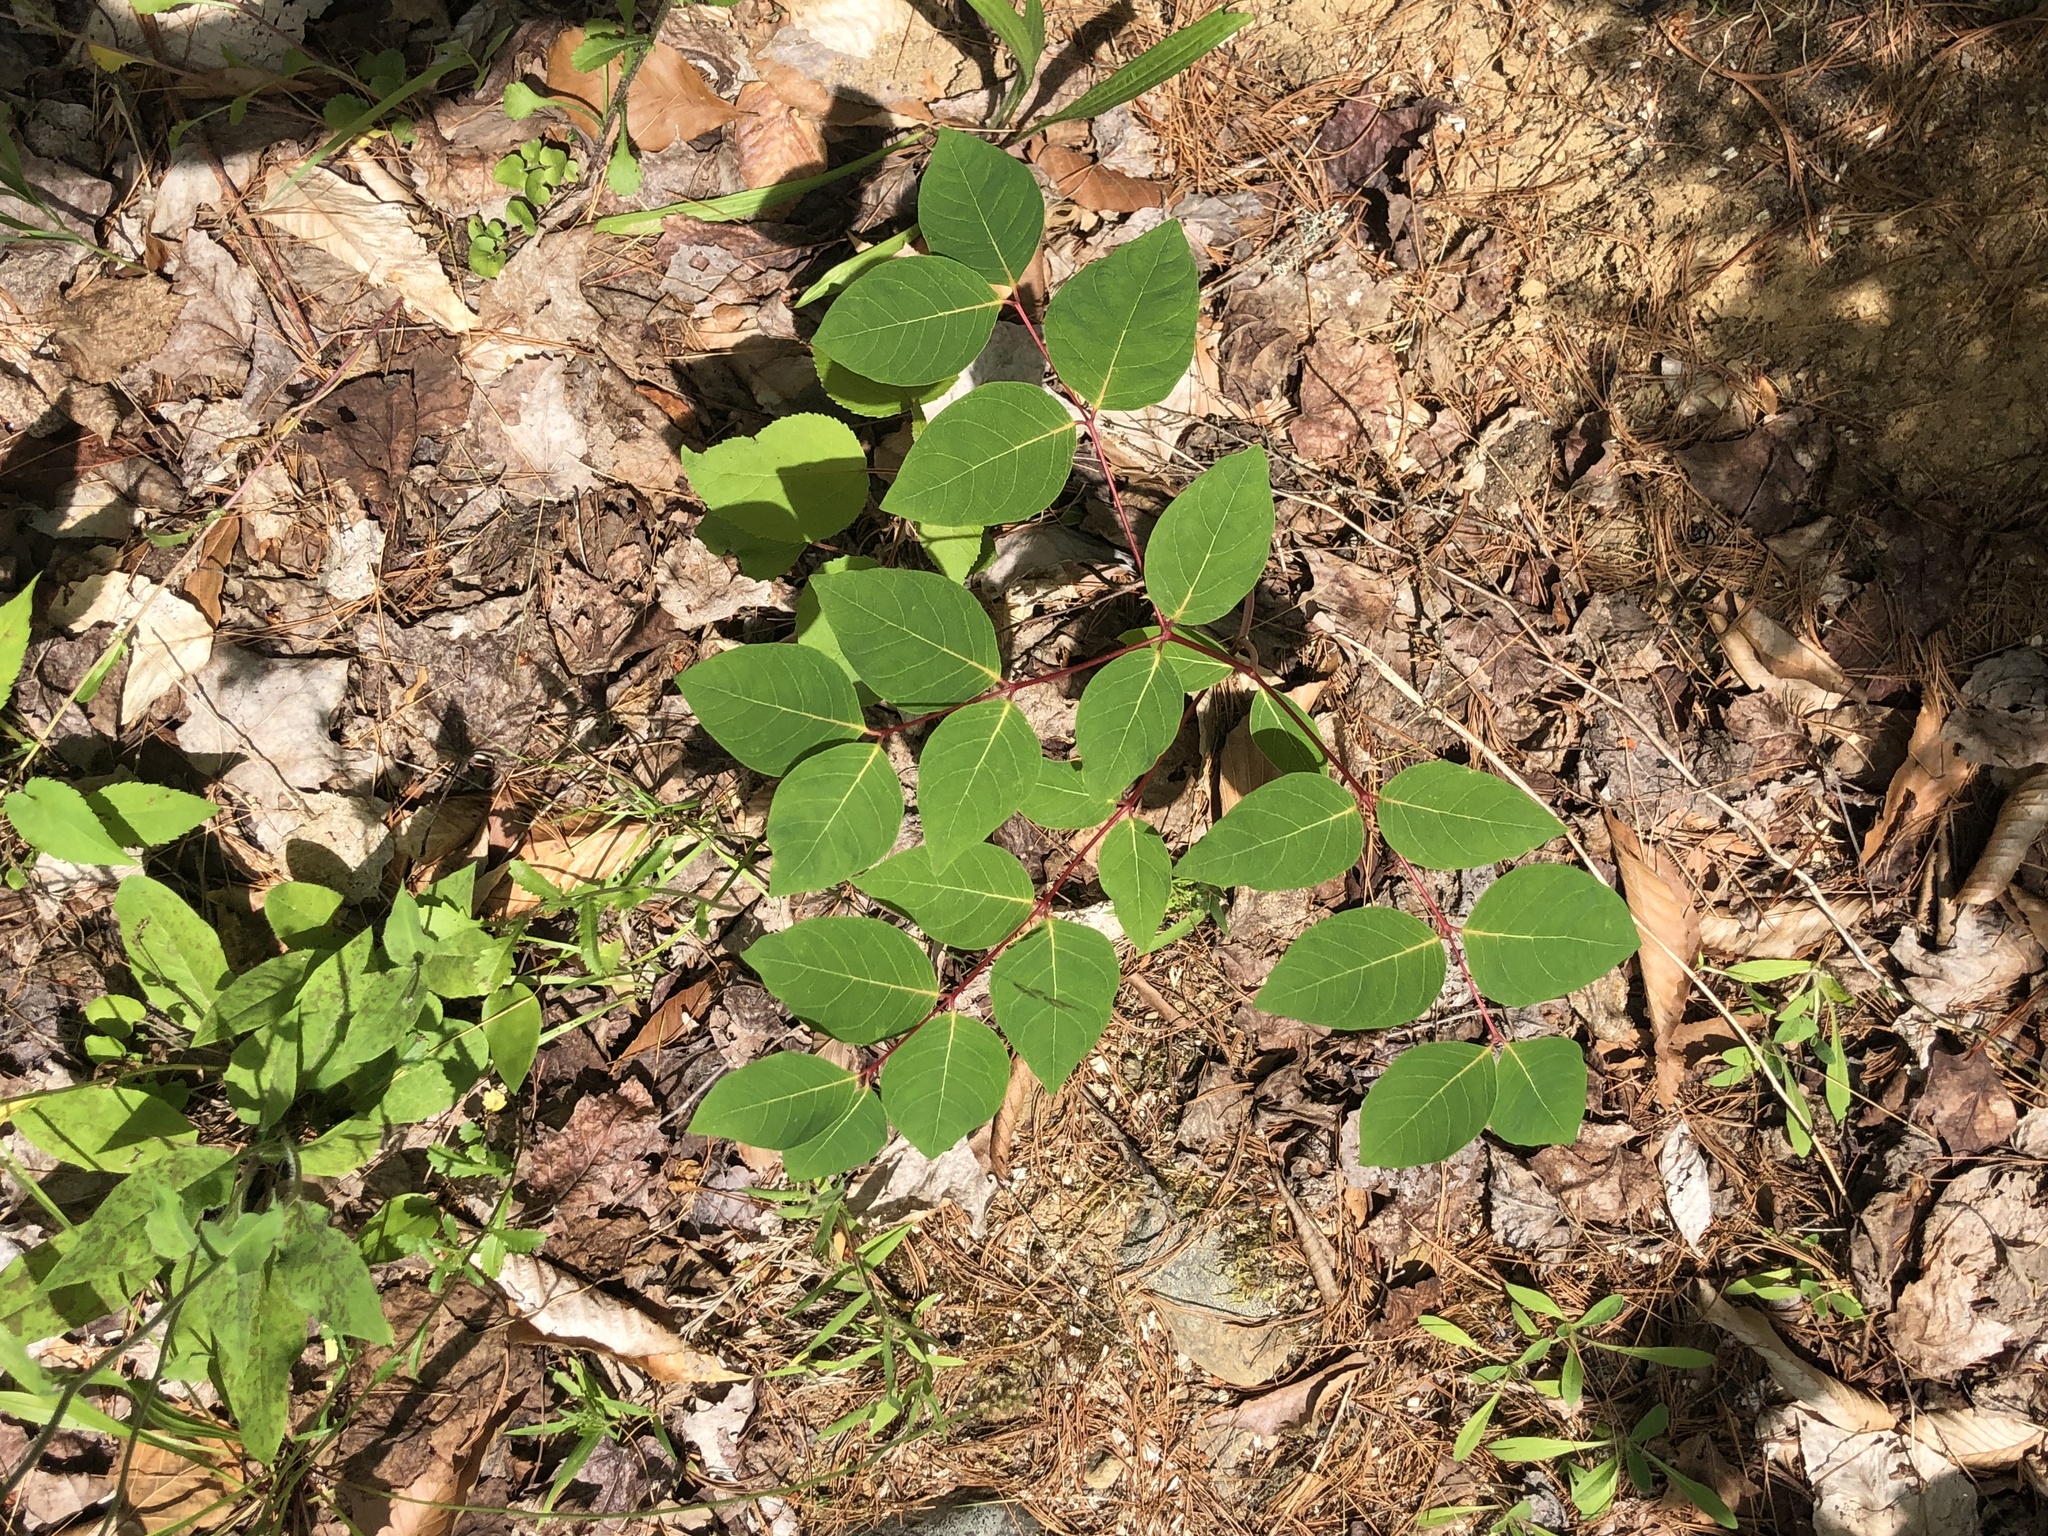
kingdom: Plantae
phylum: Tracheophyta
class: Magnoliopsida
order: Gentianales
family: Apocynaceae
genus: Apocynum
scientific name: Apocynum androsaemifolium
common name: Spreading dogbane
